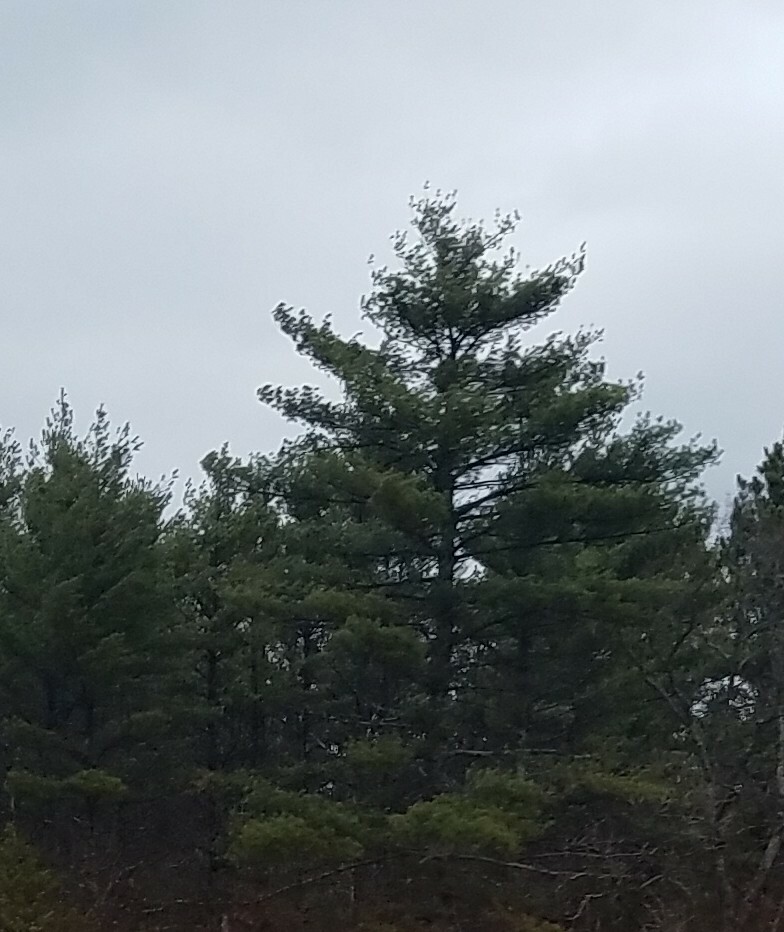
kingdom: Plantae
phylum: Tracheophyta
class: Pinopsida
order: Pinales
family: Pinaceae
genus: Pinus
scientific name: Pinus strobus
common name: Weymouth pine
